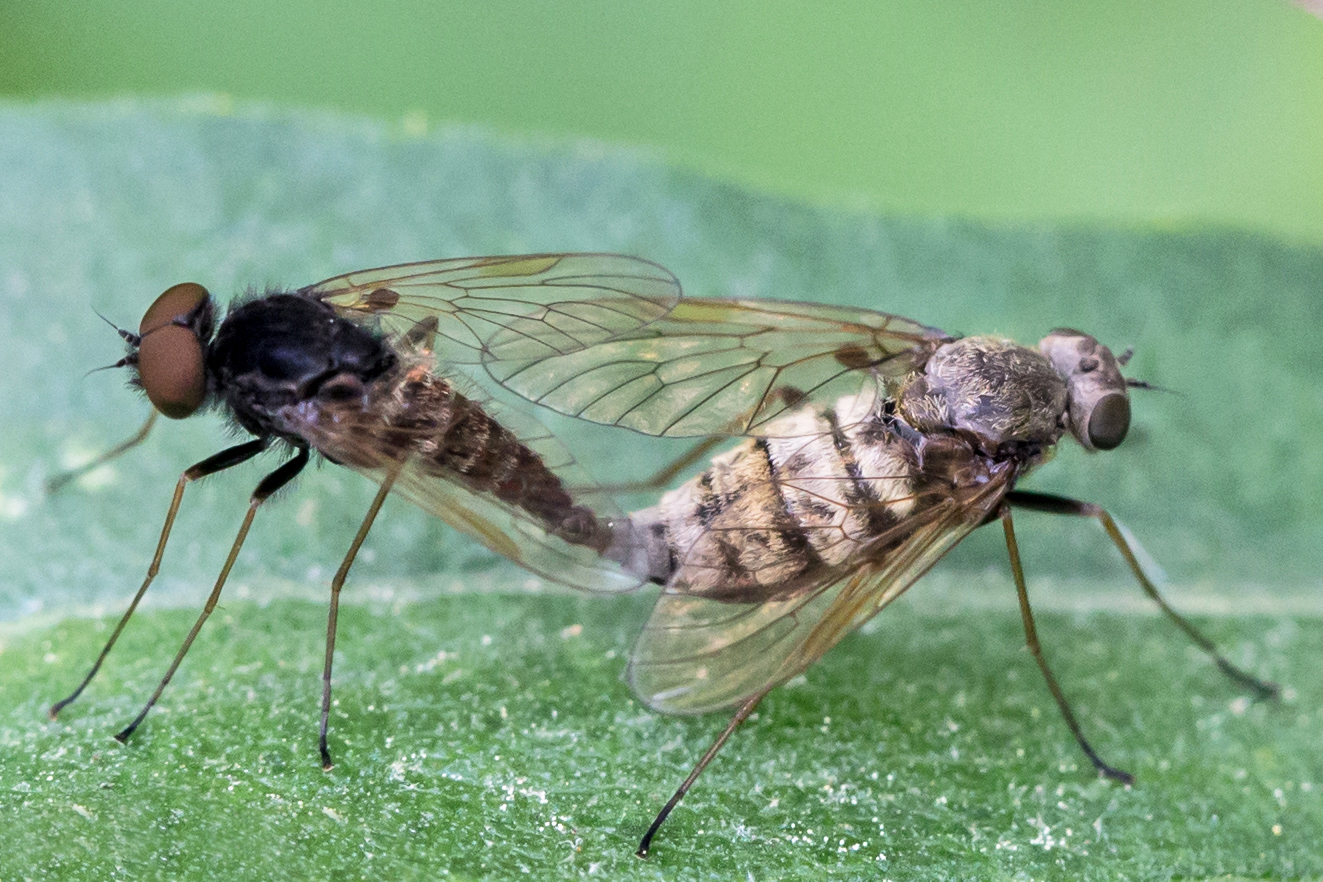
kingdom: Animalia
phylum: Arthropoda
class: Insecta
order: Diptera
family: Rhagionidae
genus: Chrysopilus
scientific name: Chrysopilus proximus
